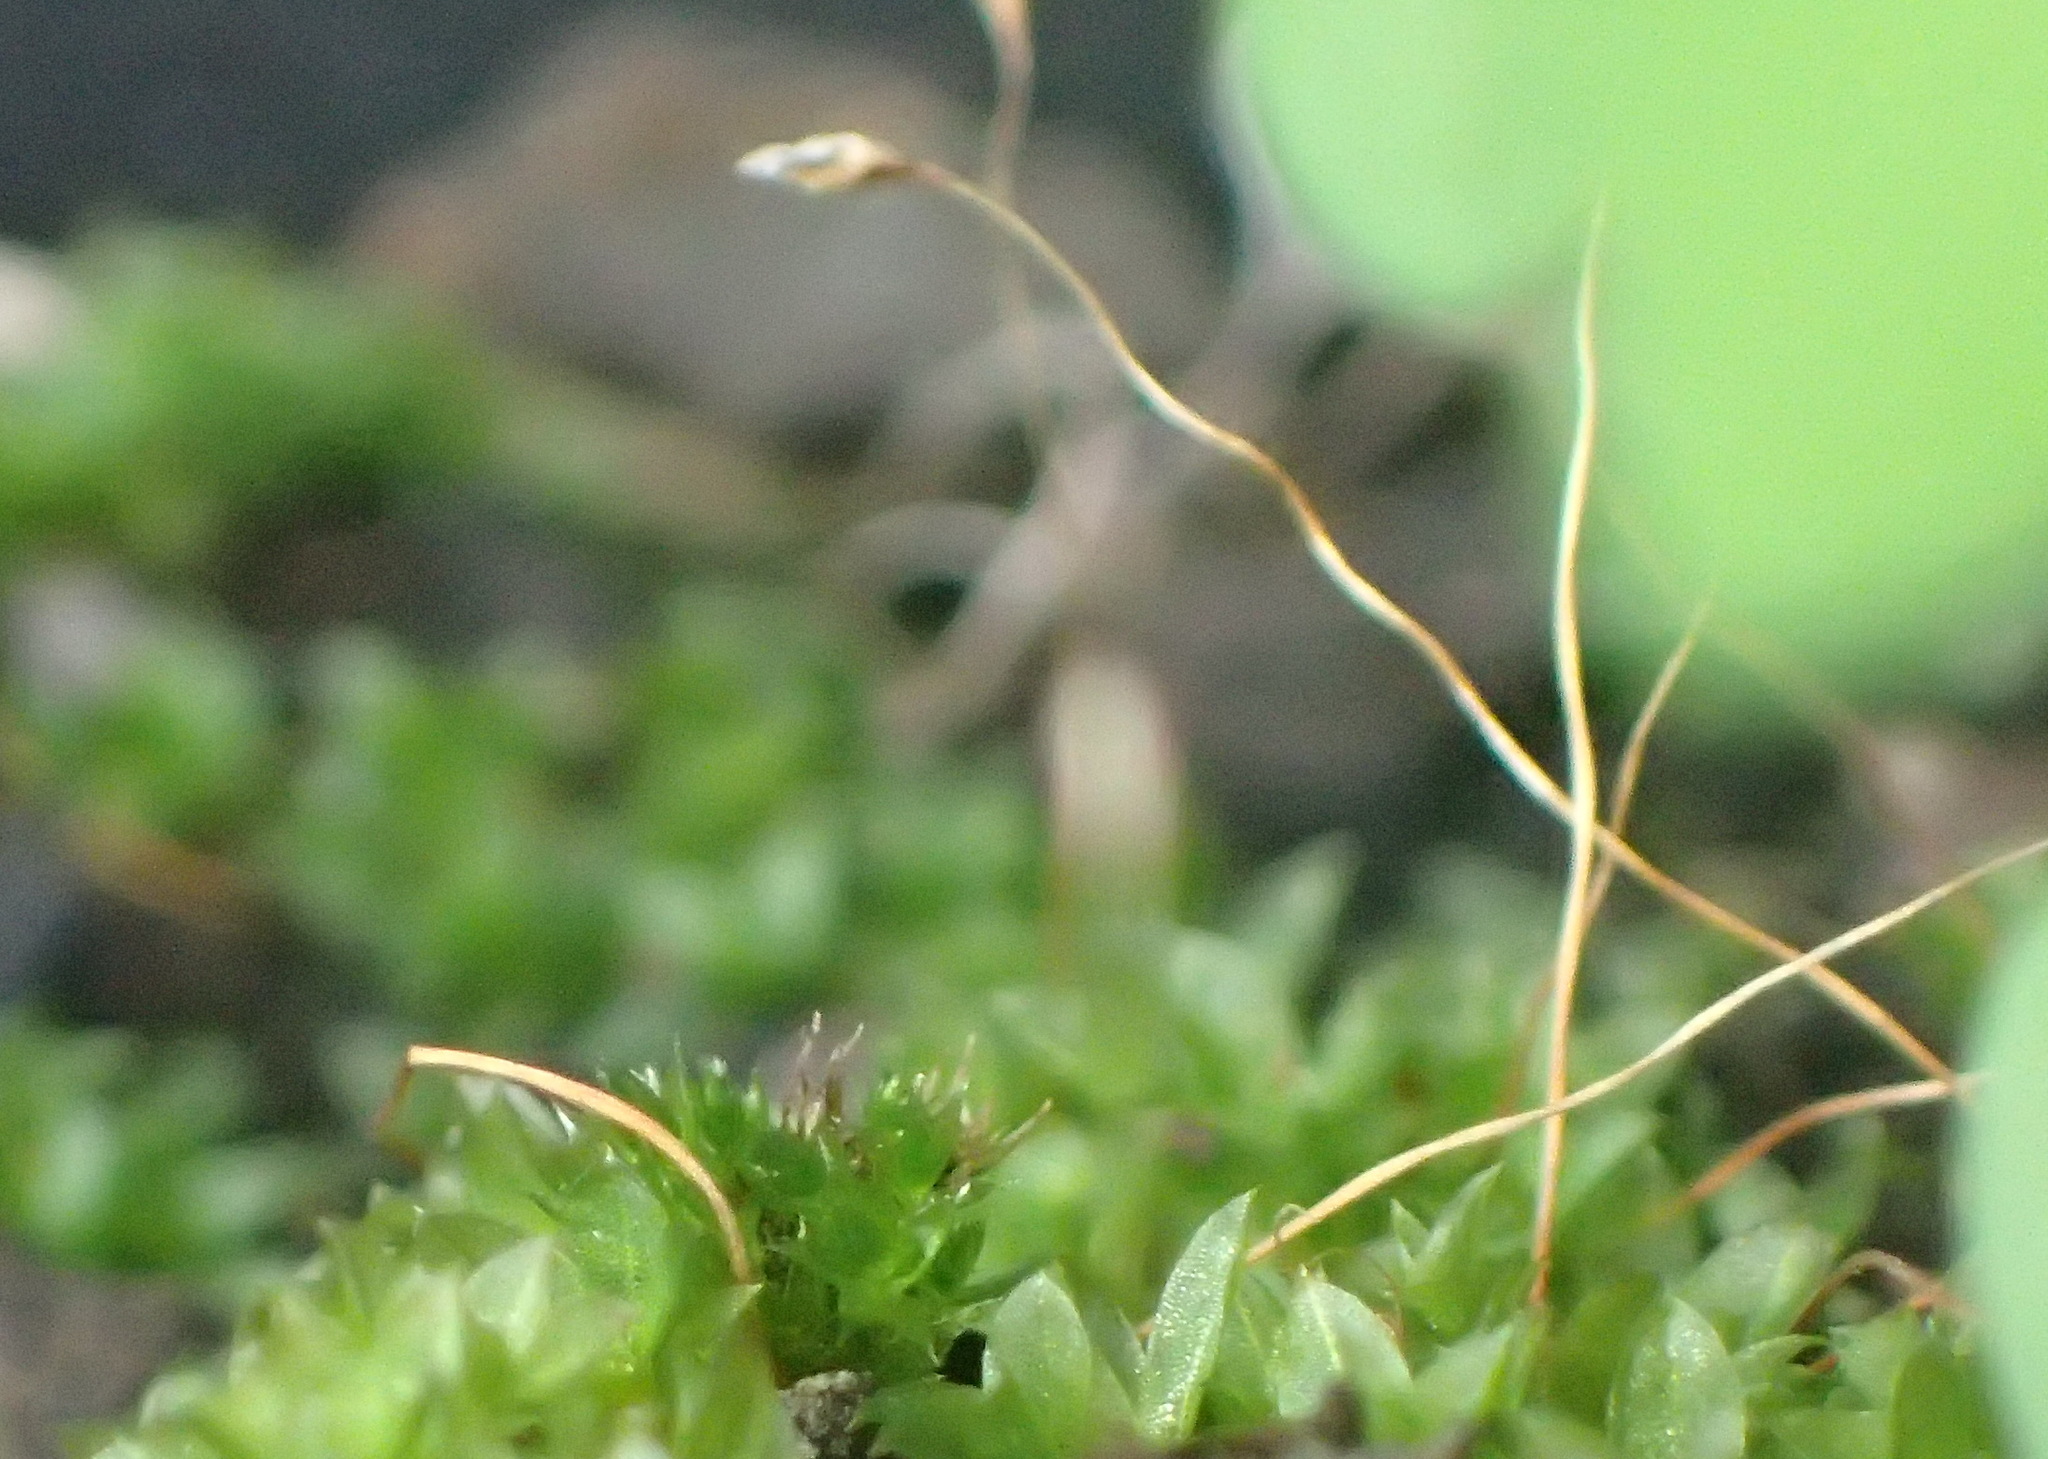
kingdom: Plantae
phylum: Bryophyta
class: Bryopsida
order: Funariales
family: Funariaceae
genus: Funaria
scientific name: Funaria hygrometrica
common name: Common cord moss
